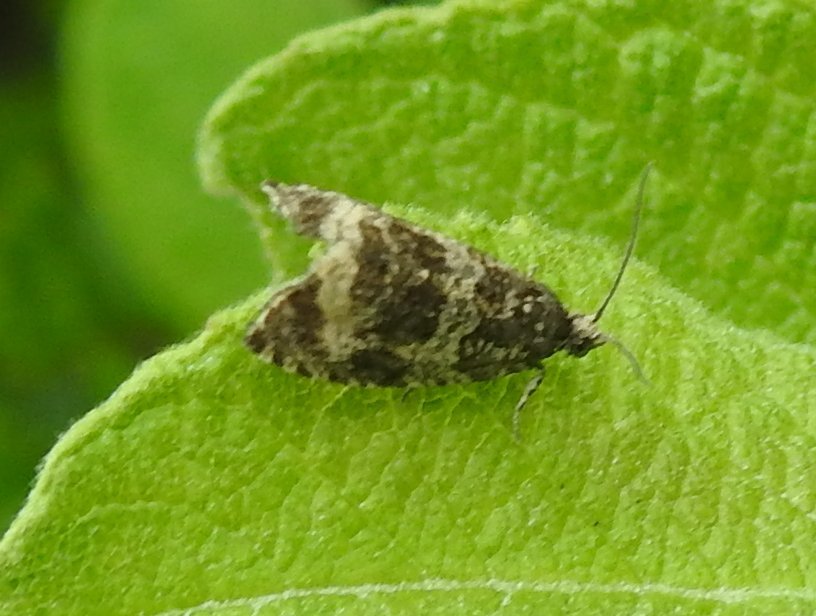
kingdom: Animalia
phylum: Arthropoda
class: Insecta
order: Lepidoptera
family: Tortricidae
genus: Syricoris
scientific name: Syricoris lacunana
